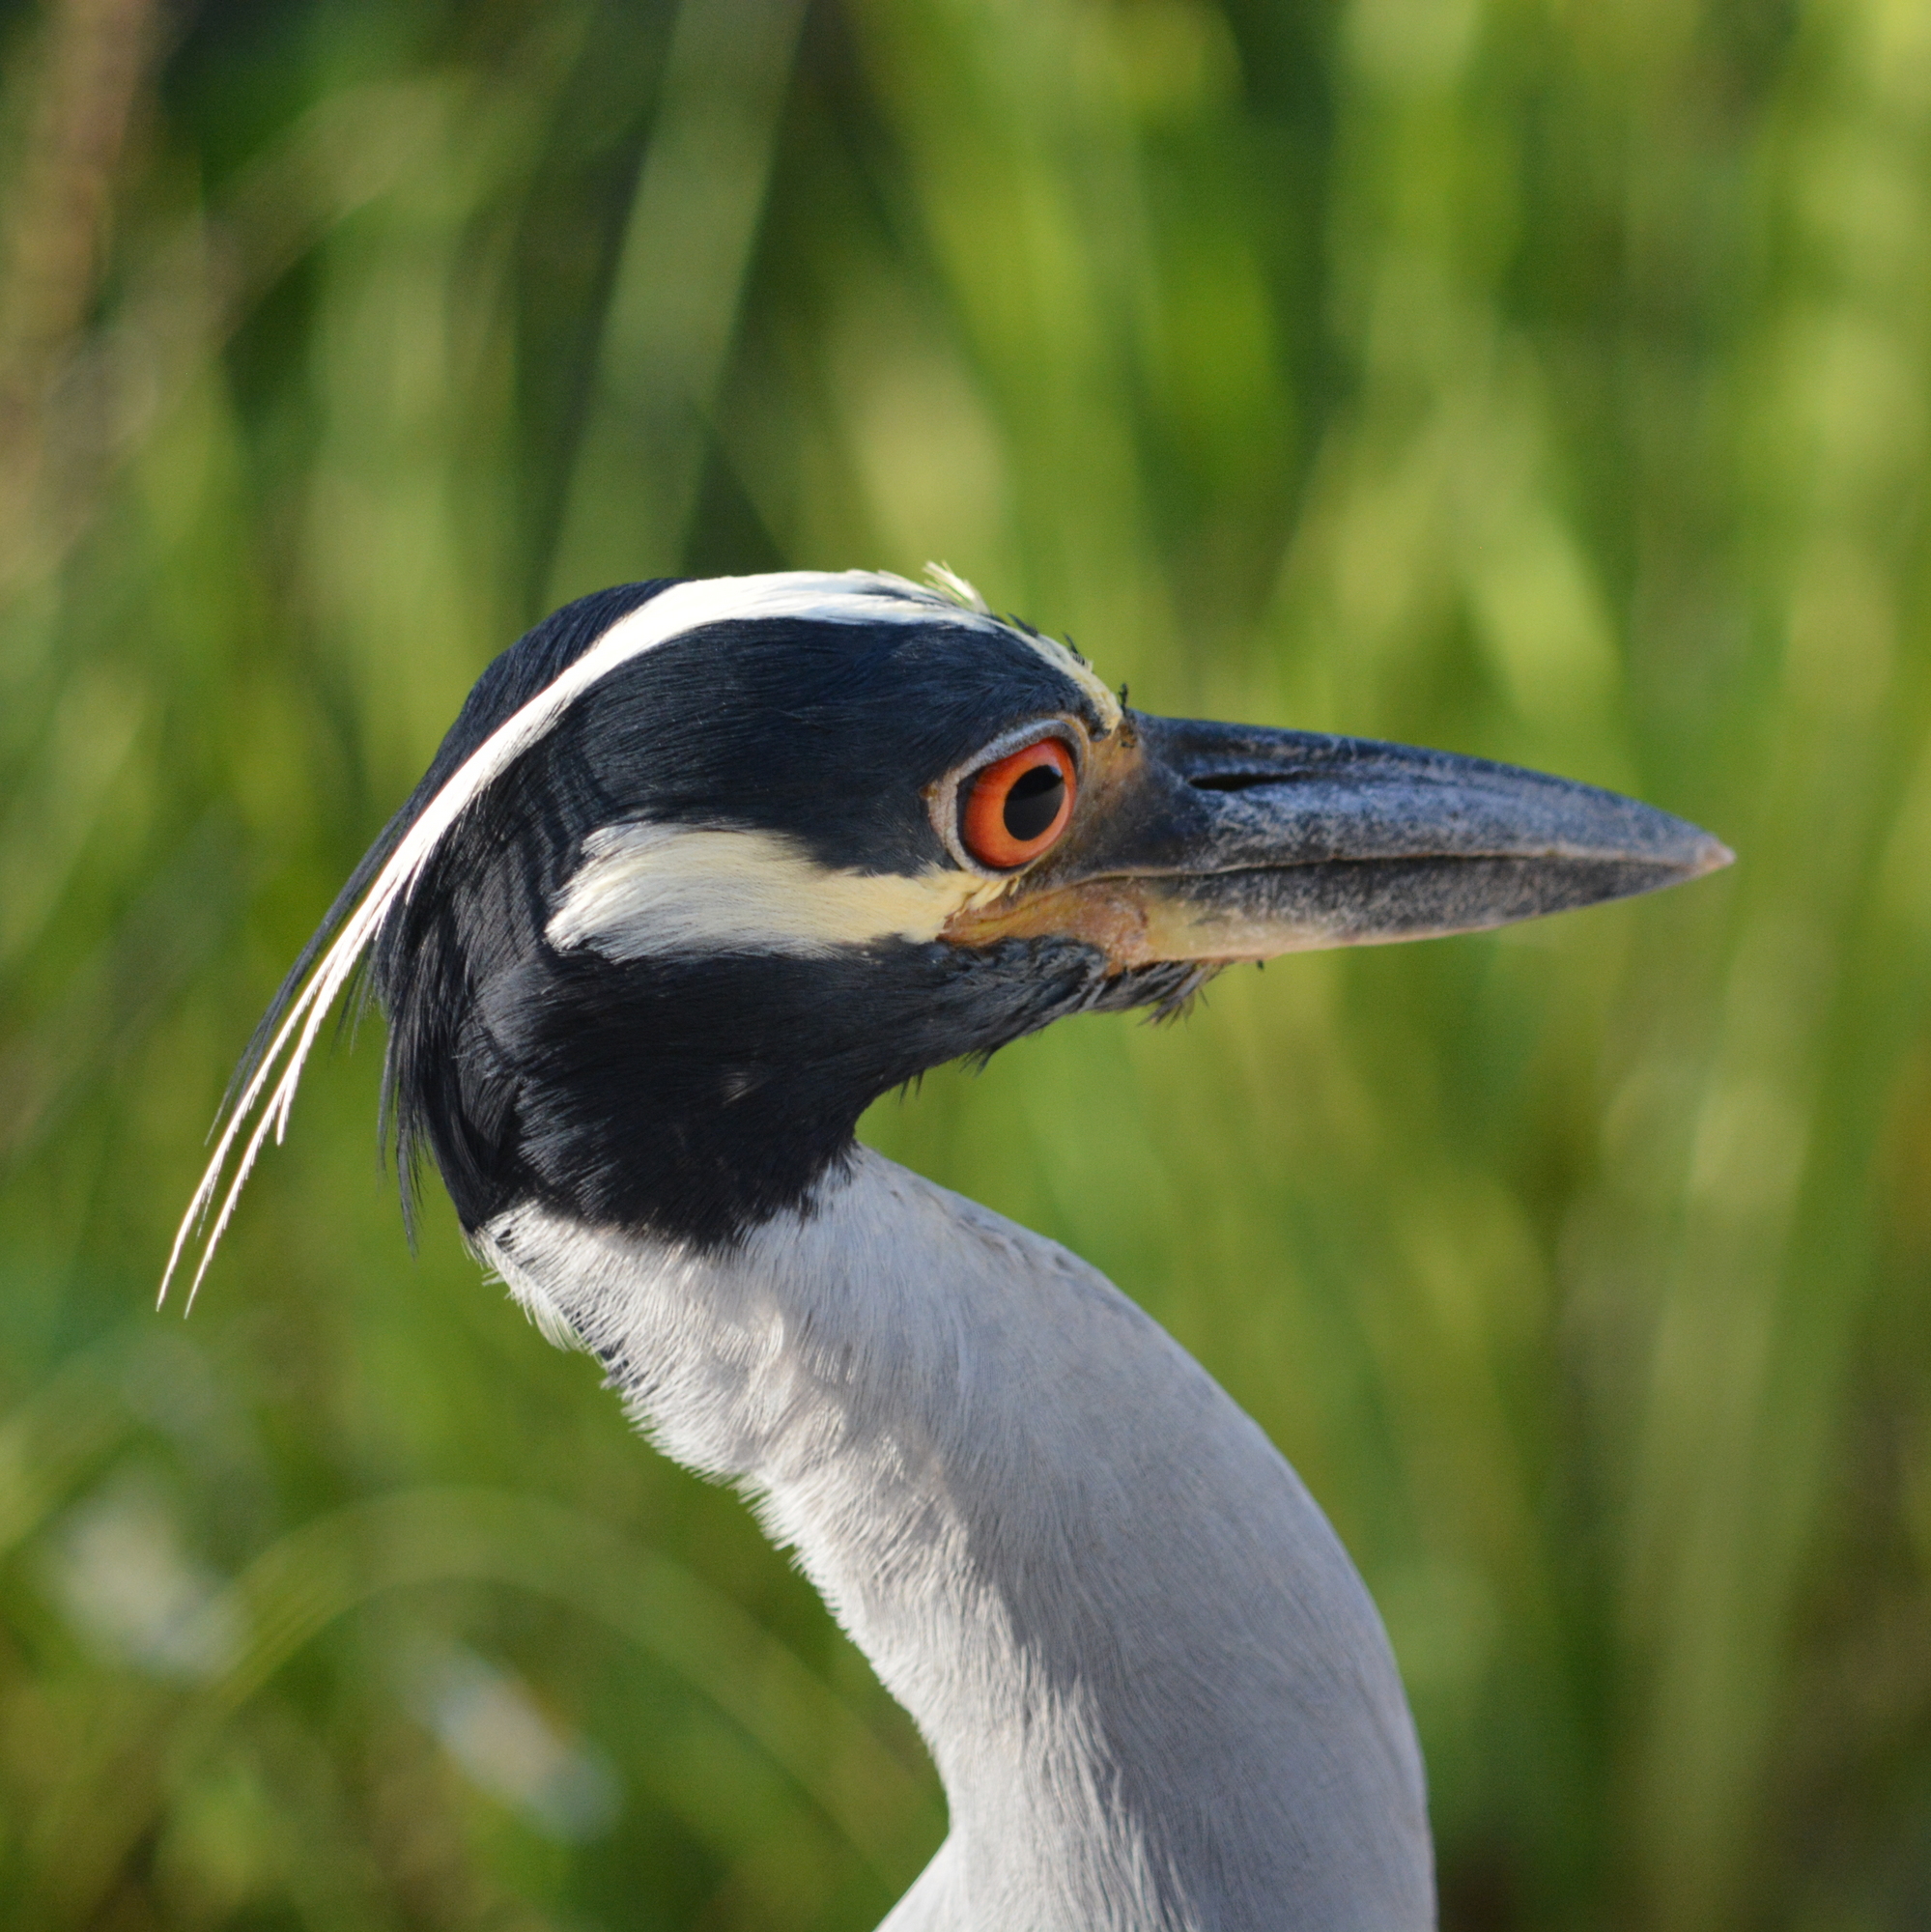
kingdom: Animalia
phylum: Chordata
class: Aves
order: Pelecaniformes
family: Ardeidae
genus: Nyctanassa
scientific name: Nyctanassa violacea
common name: Yellow-crowned night heron
